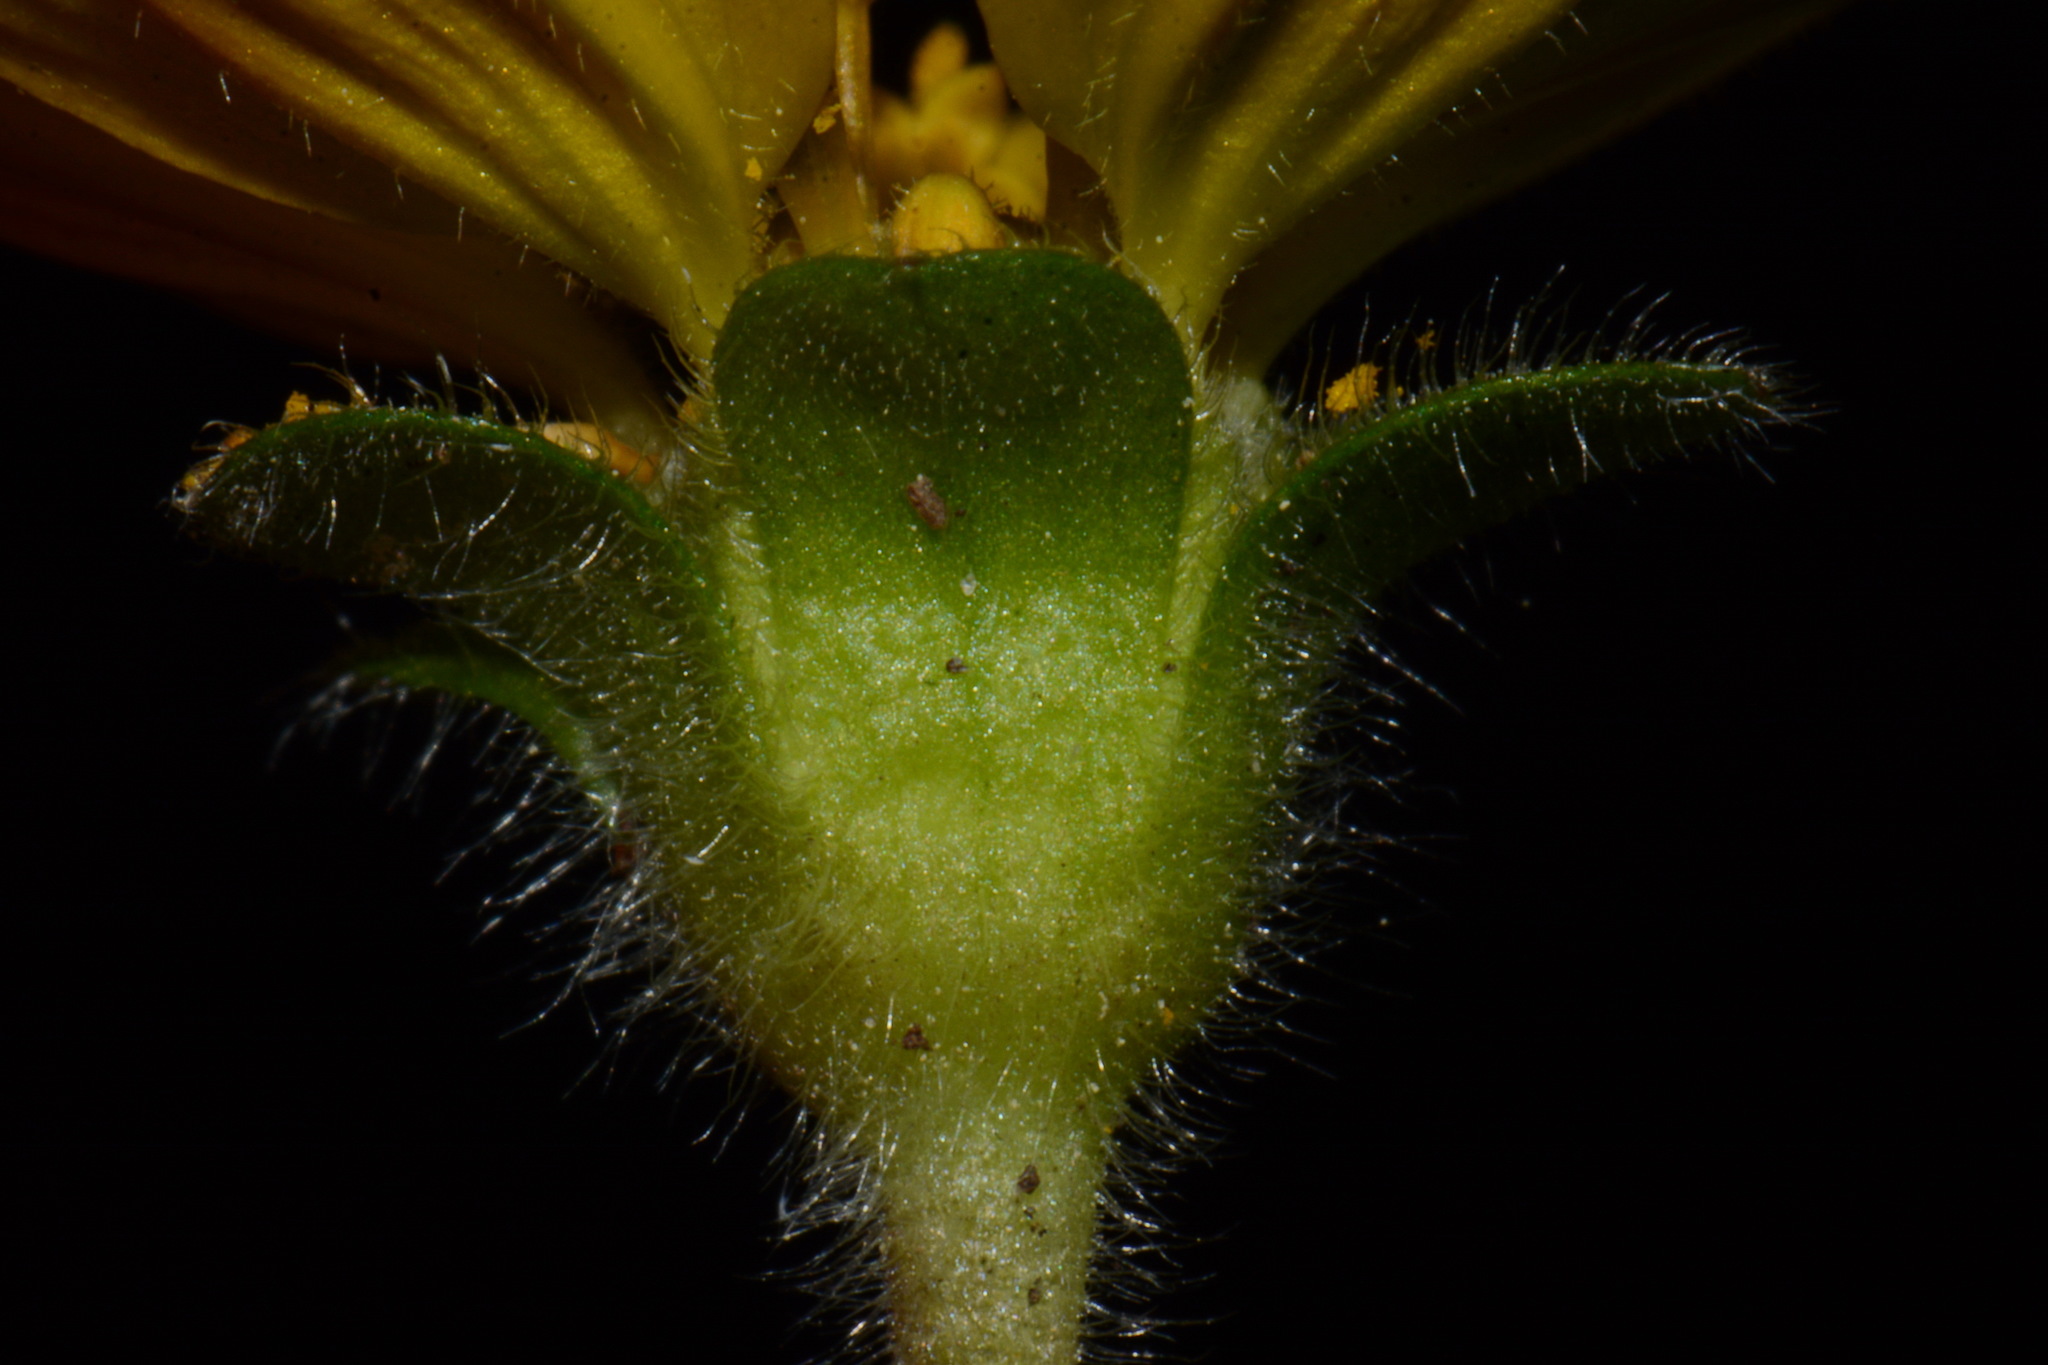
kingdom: Plantae
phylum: Tracheophyta
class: Magnoliopsida
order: Asterales
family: Asteraceae
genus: Chrysogonum
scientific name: Chrysogonum australe
